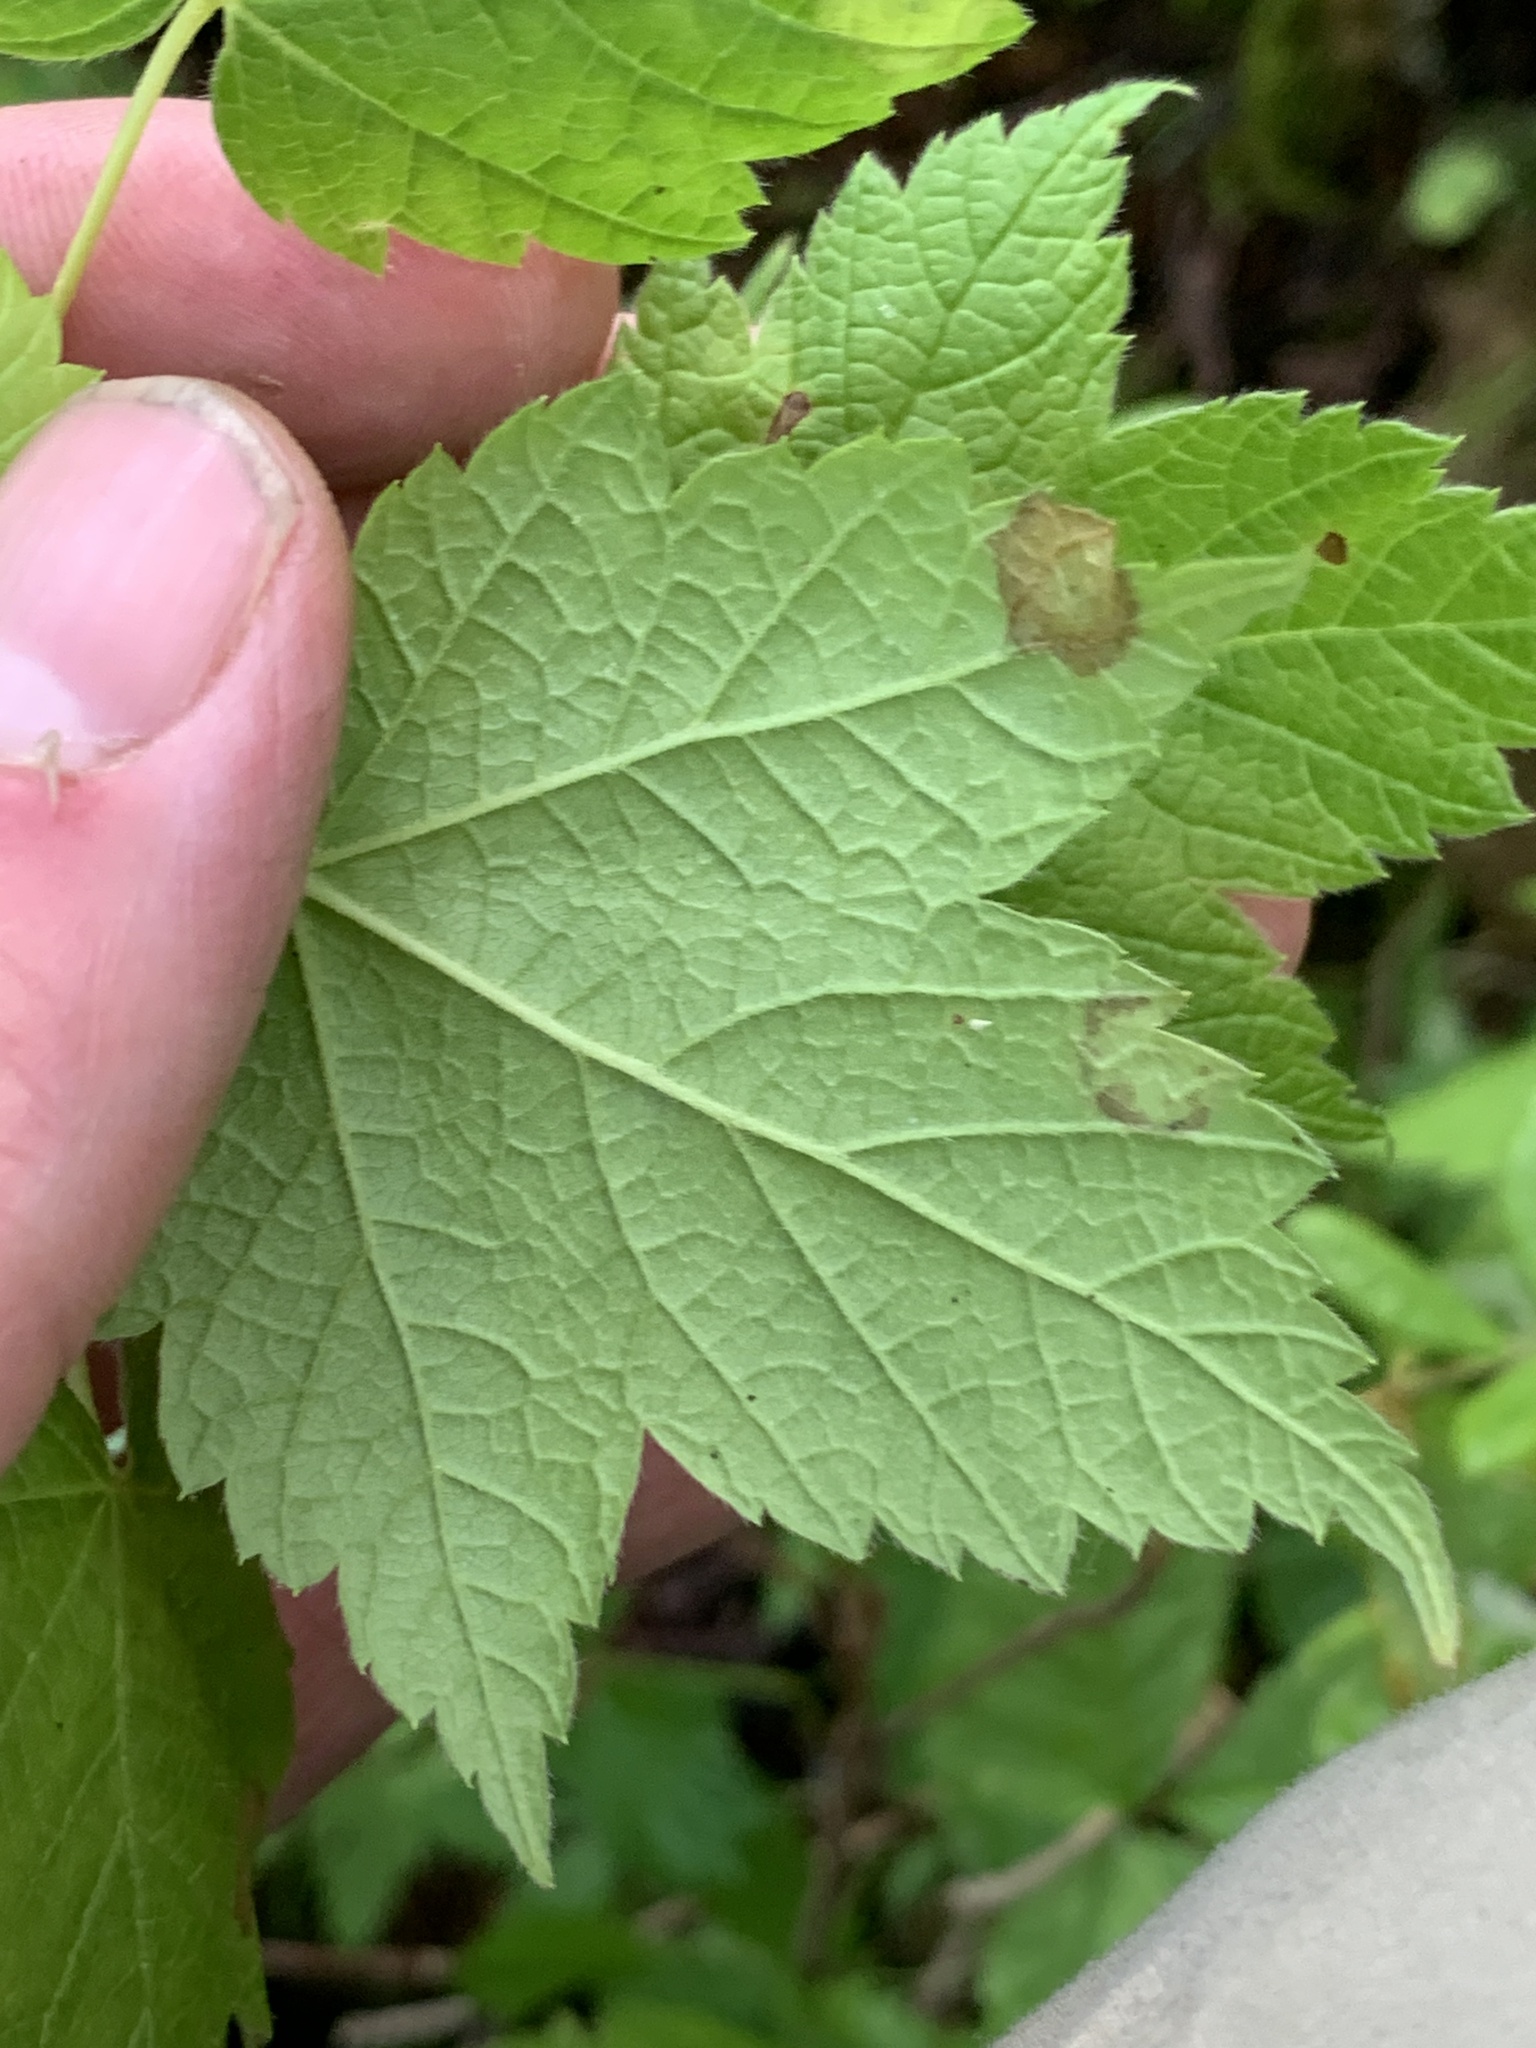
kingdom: Plantae
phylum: Tracheophyta
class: Magnoliopsida
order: Sapindales
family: Sapindaceae
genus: Acer
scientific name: Acer spicatum
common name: Mountain maple
